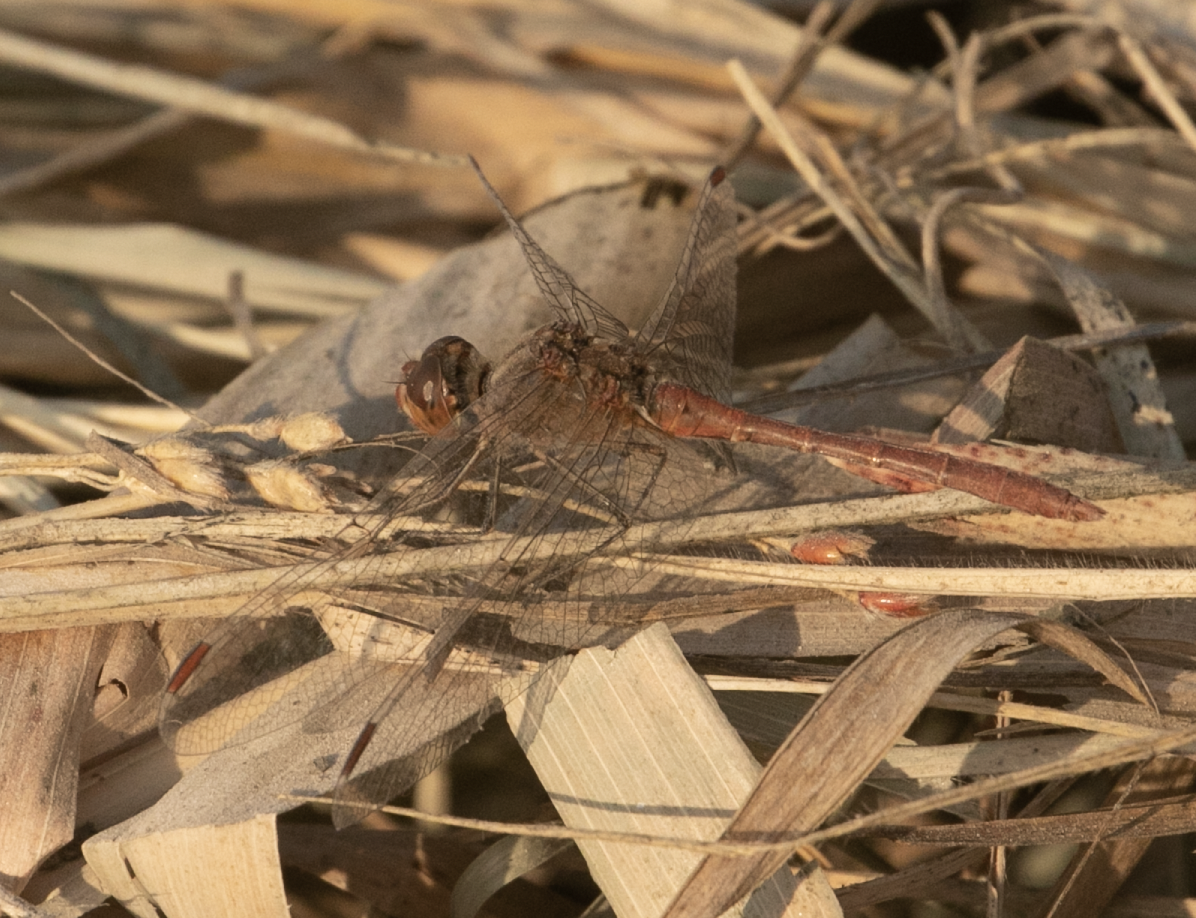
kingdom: Animalia
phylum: Arthropoda
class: Insecta
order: Odonata
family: Libellulidae
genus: Sympetrum
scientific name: Sympetrum meridionale
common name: Southern darter
